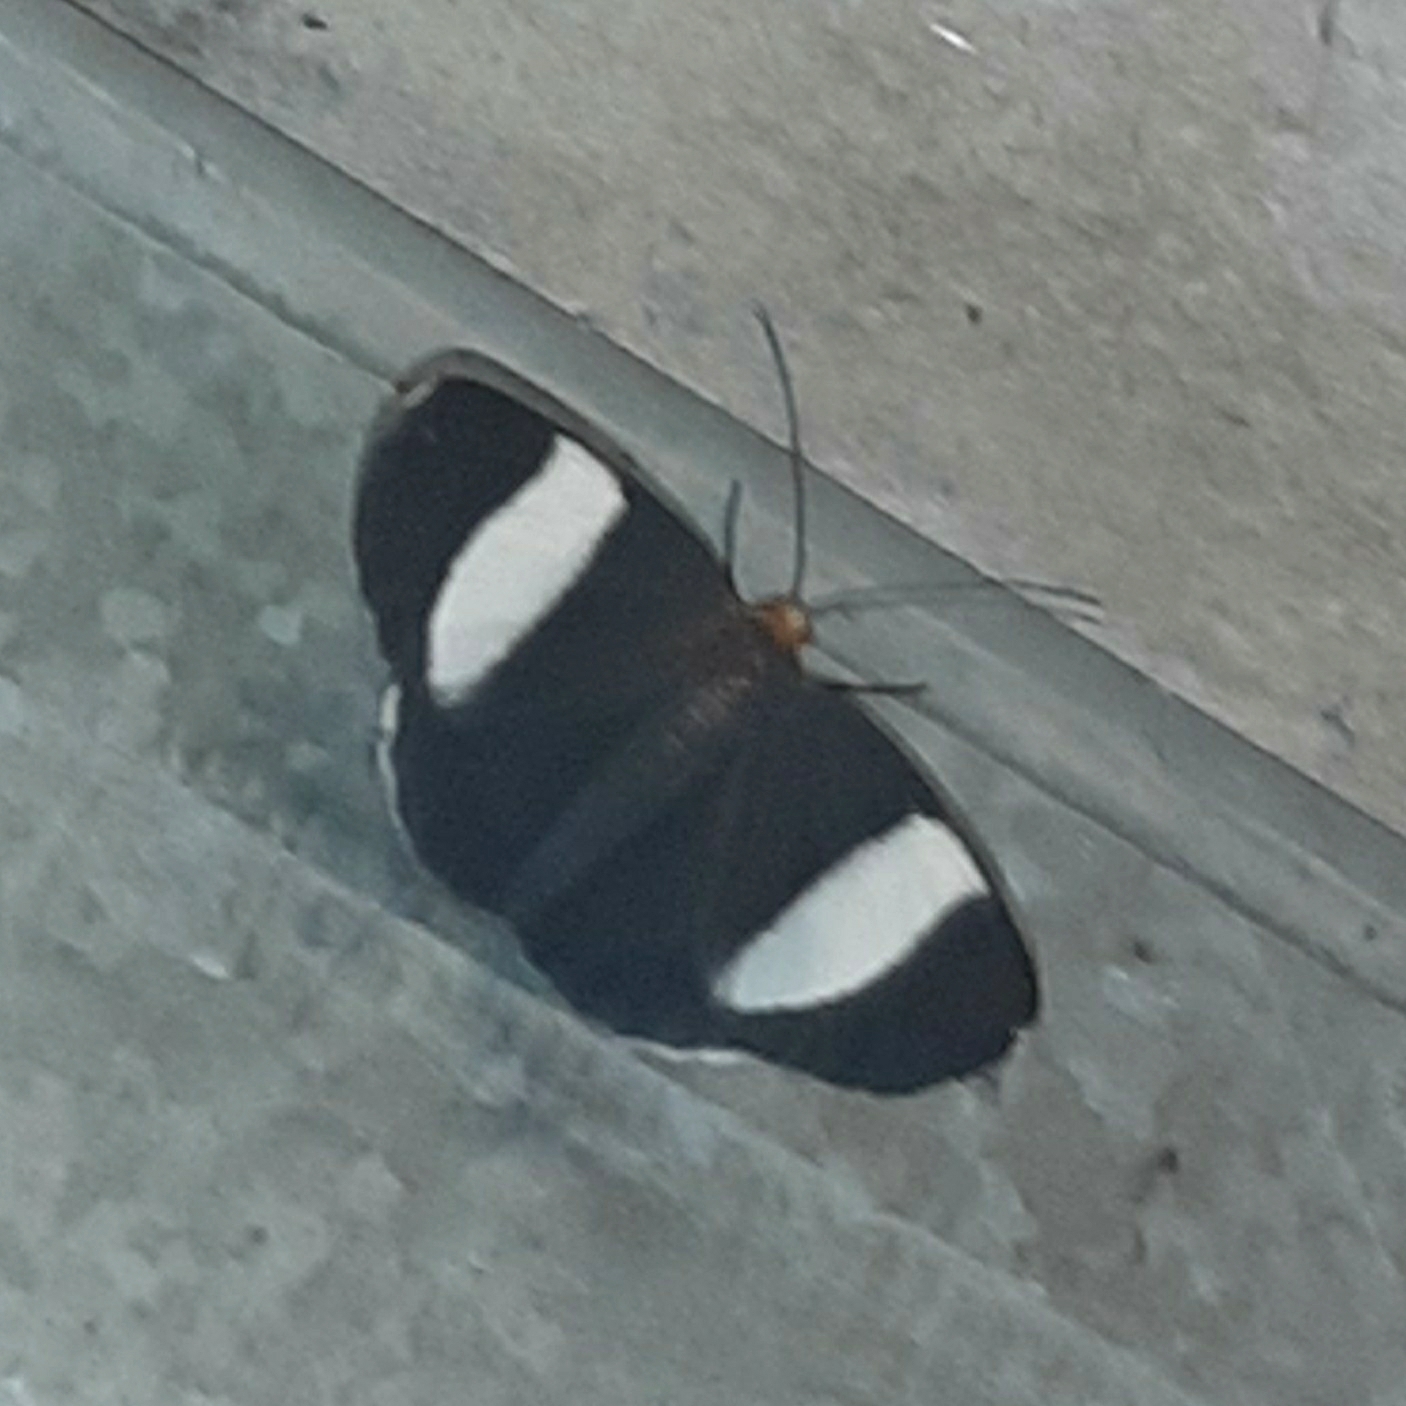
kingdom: Animalia
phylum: Arthropoda
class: Insecta
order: Lepidoptera
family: Geometridae
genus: Simena
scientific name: Simena luctifera
